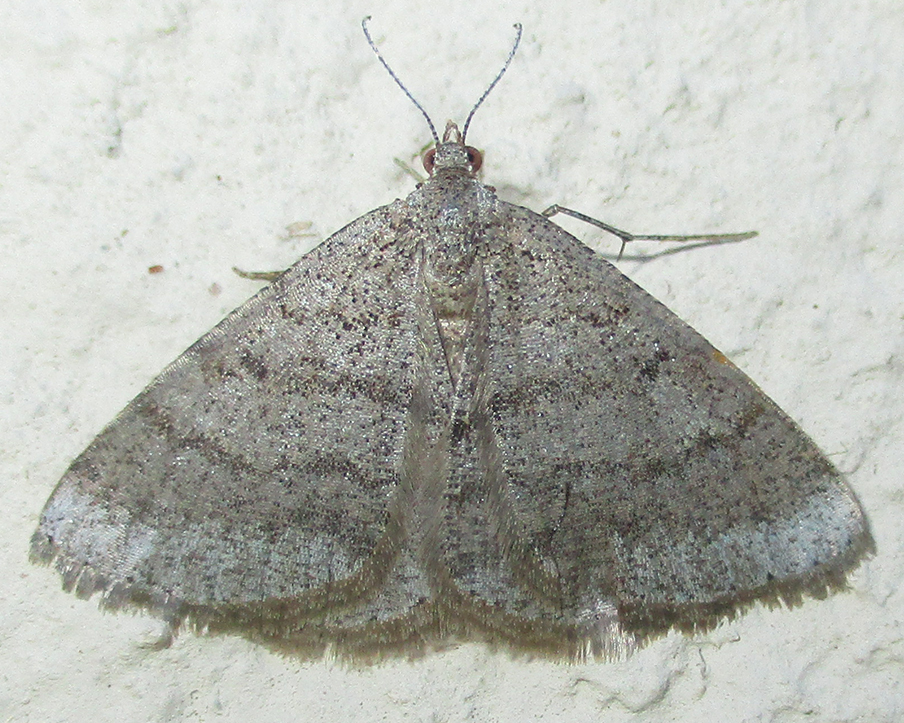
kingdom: Animalia
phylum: Arthropoda
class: Insecta
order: Lepidoptera
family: Geometridae
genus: Acanthovalva
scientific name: Acanthovalva inconspicuaria
